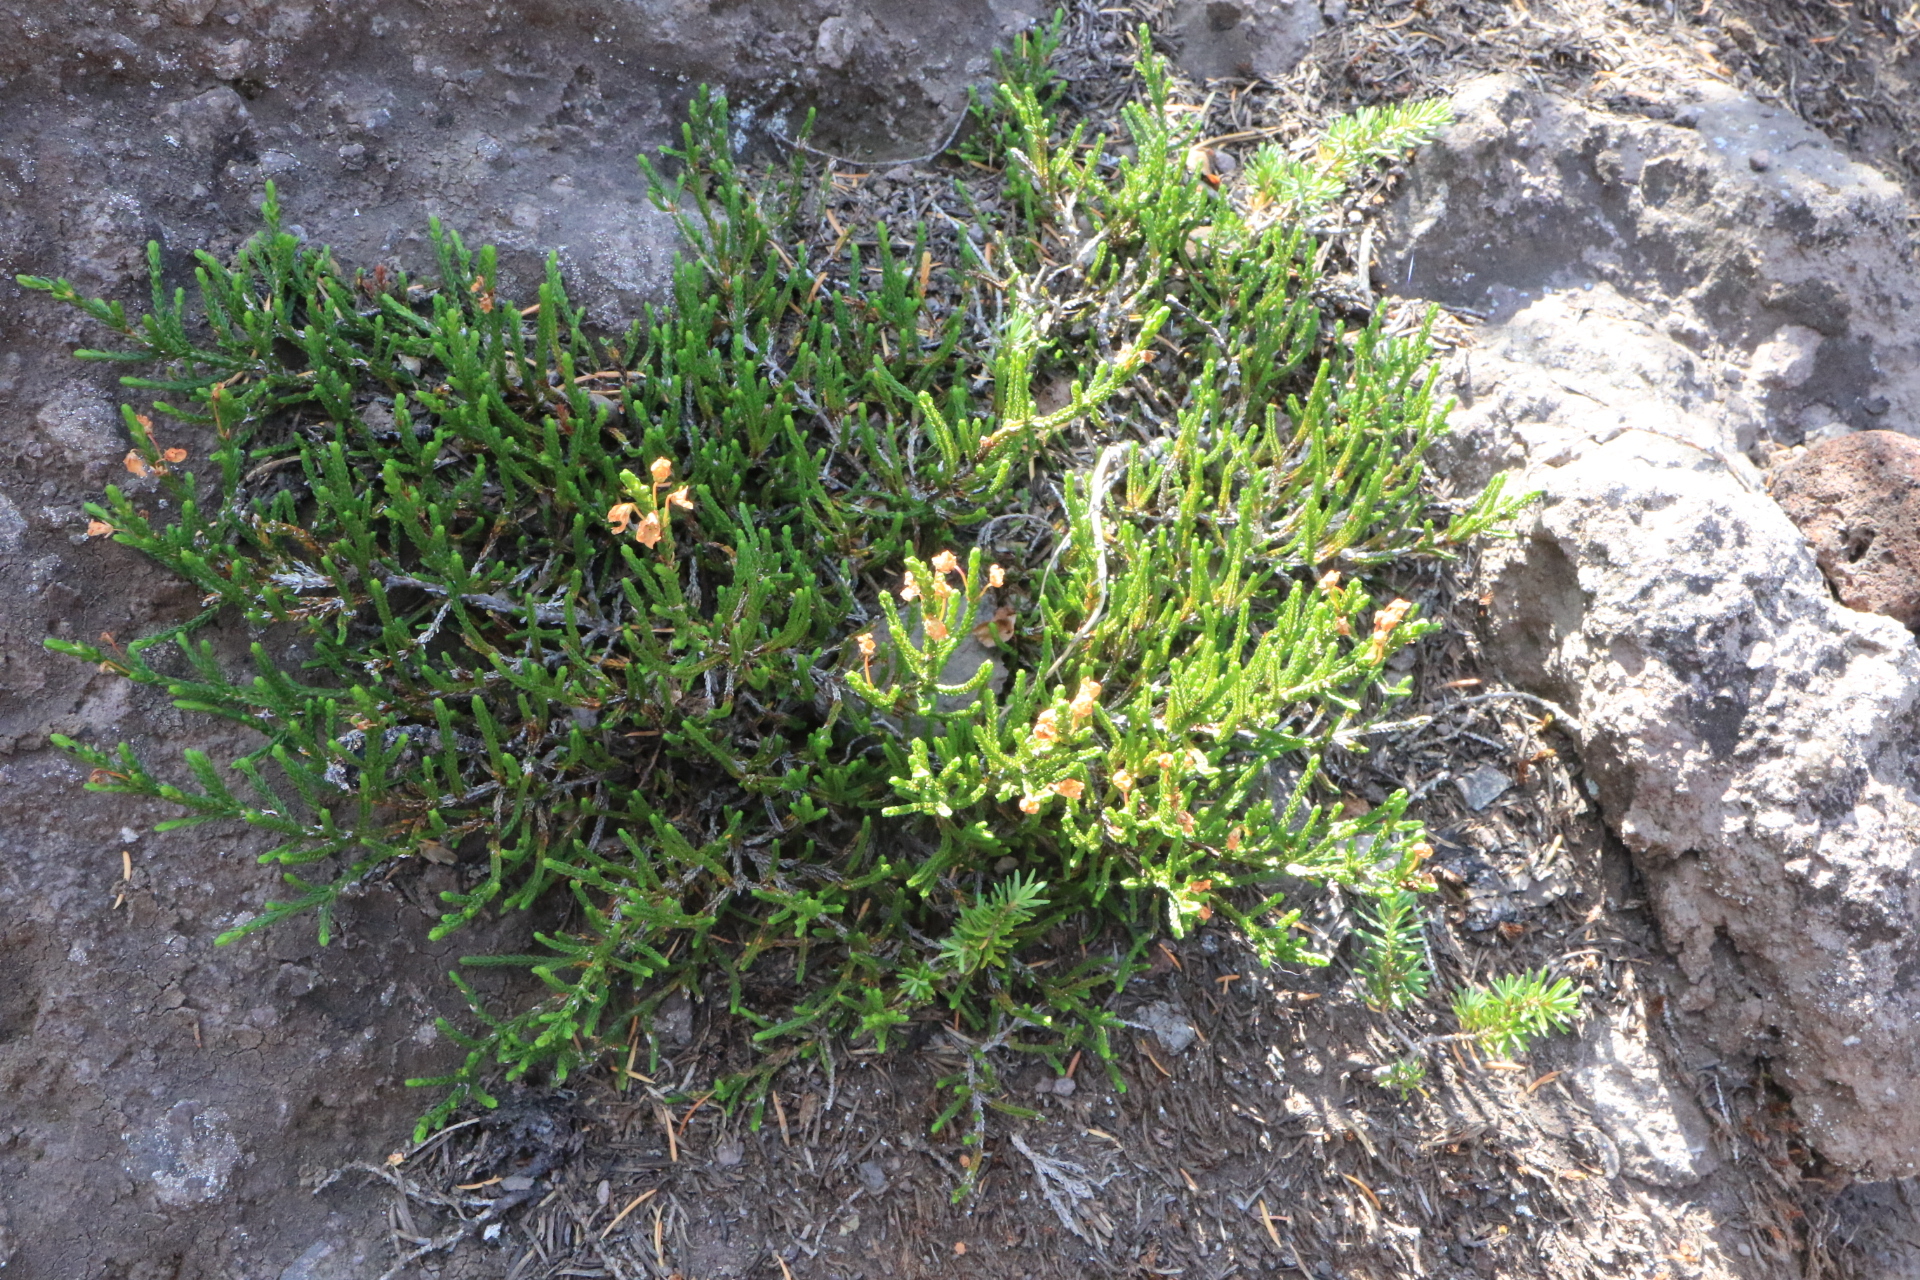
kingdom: Plantae
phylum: Tracheophyta
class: Magnoliopsida
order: Ericales
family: Ericaceae
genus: Cassiope
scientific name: Cassiope mertensiana
